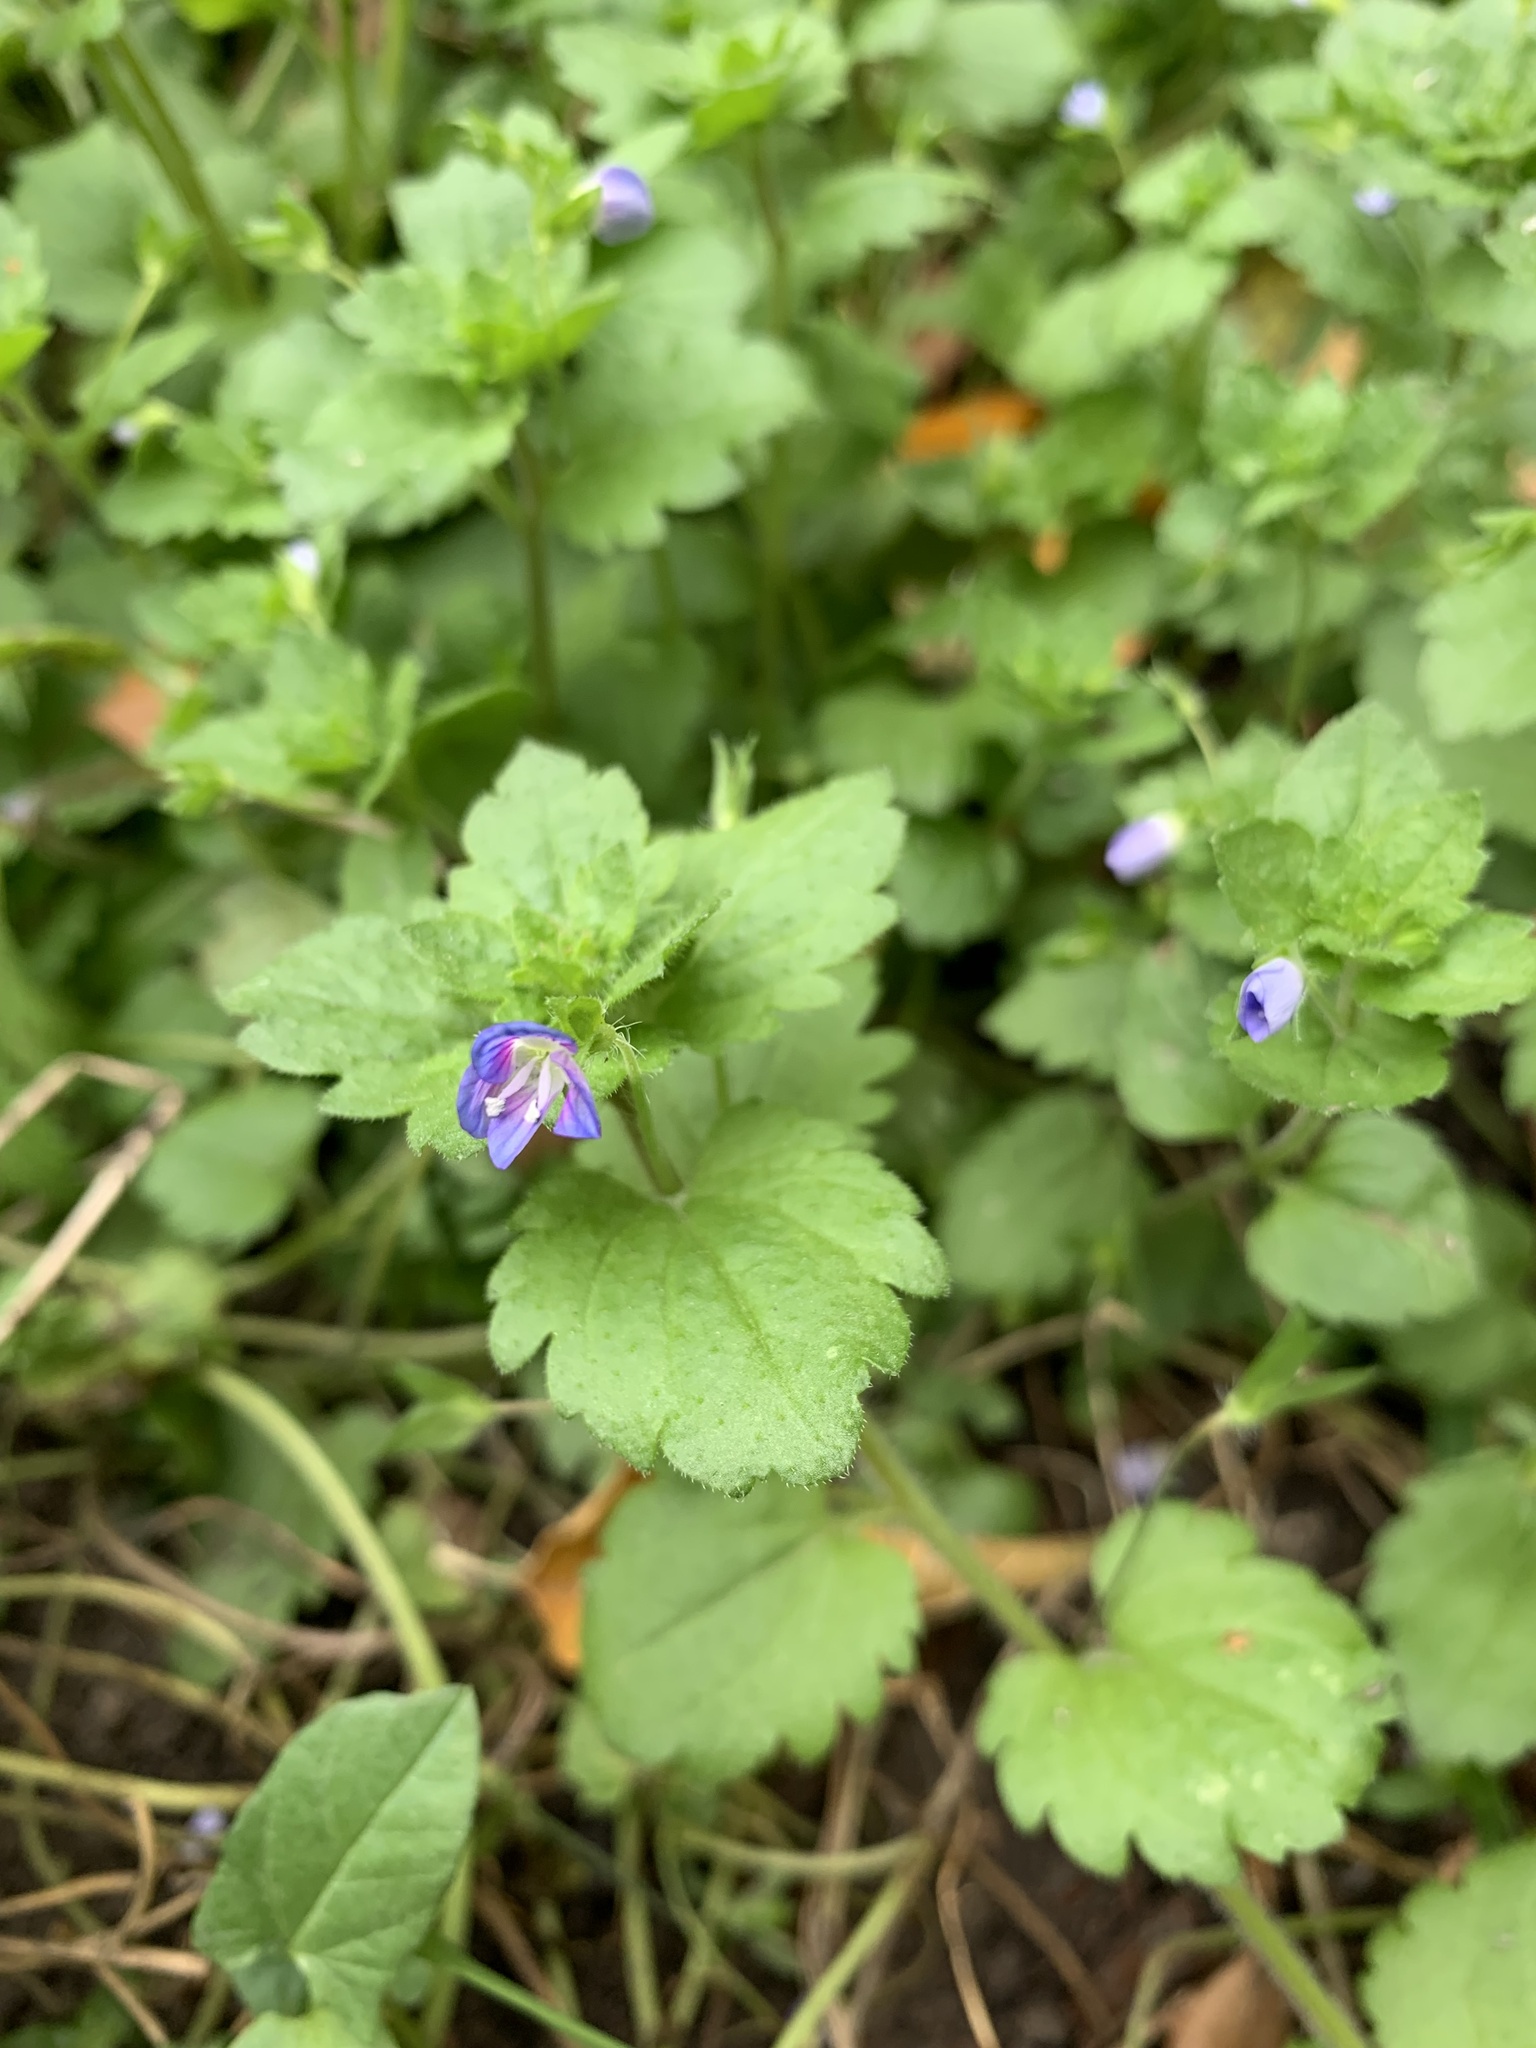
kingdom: Plantae
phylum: Tracheophyta
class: Magnoliopsida
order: Lamiales
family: Plantaginaceae
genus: Veronica
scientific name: Veronica persica
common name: Common field-speedwell
